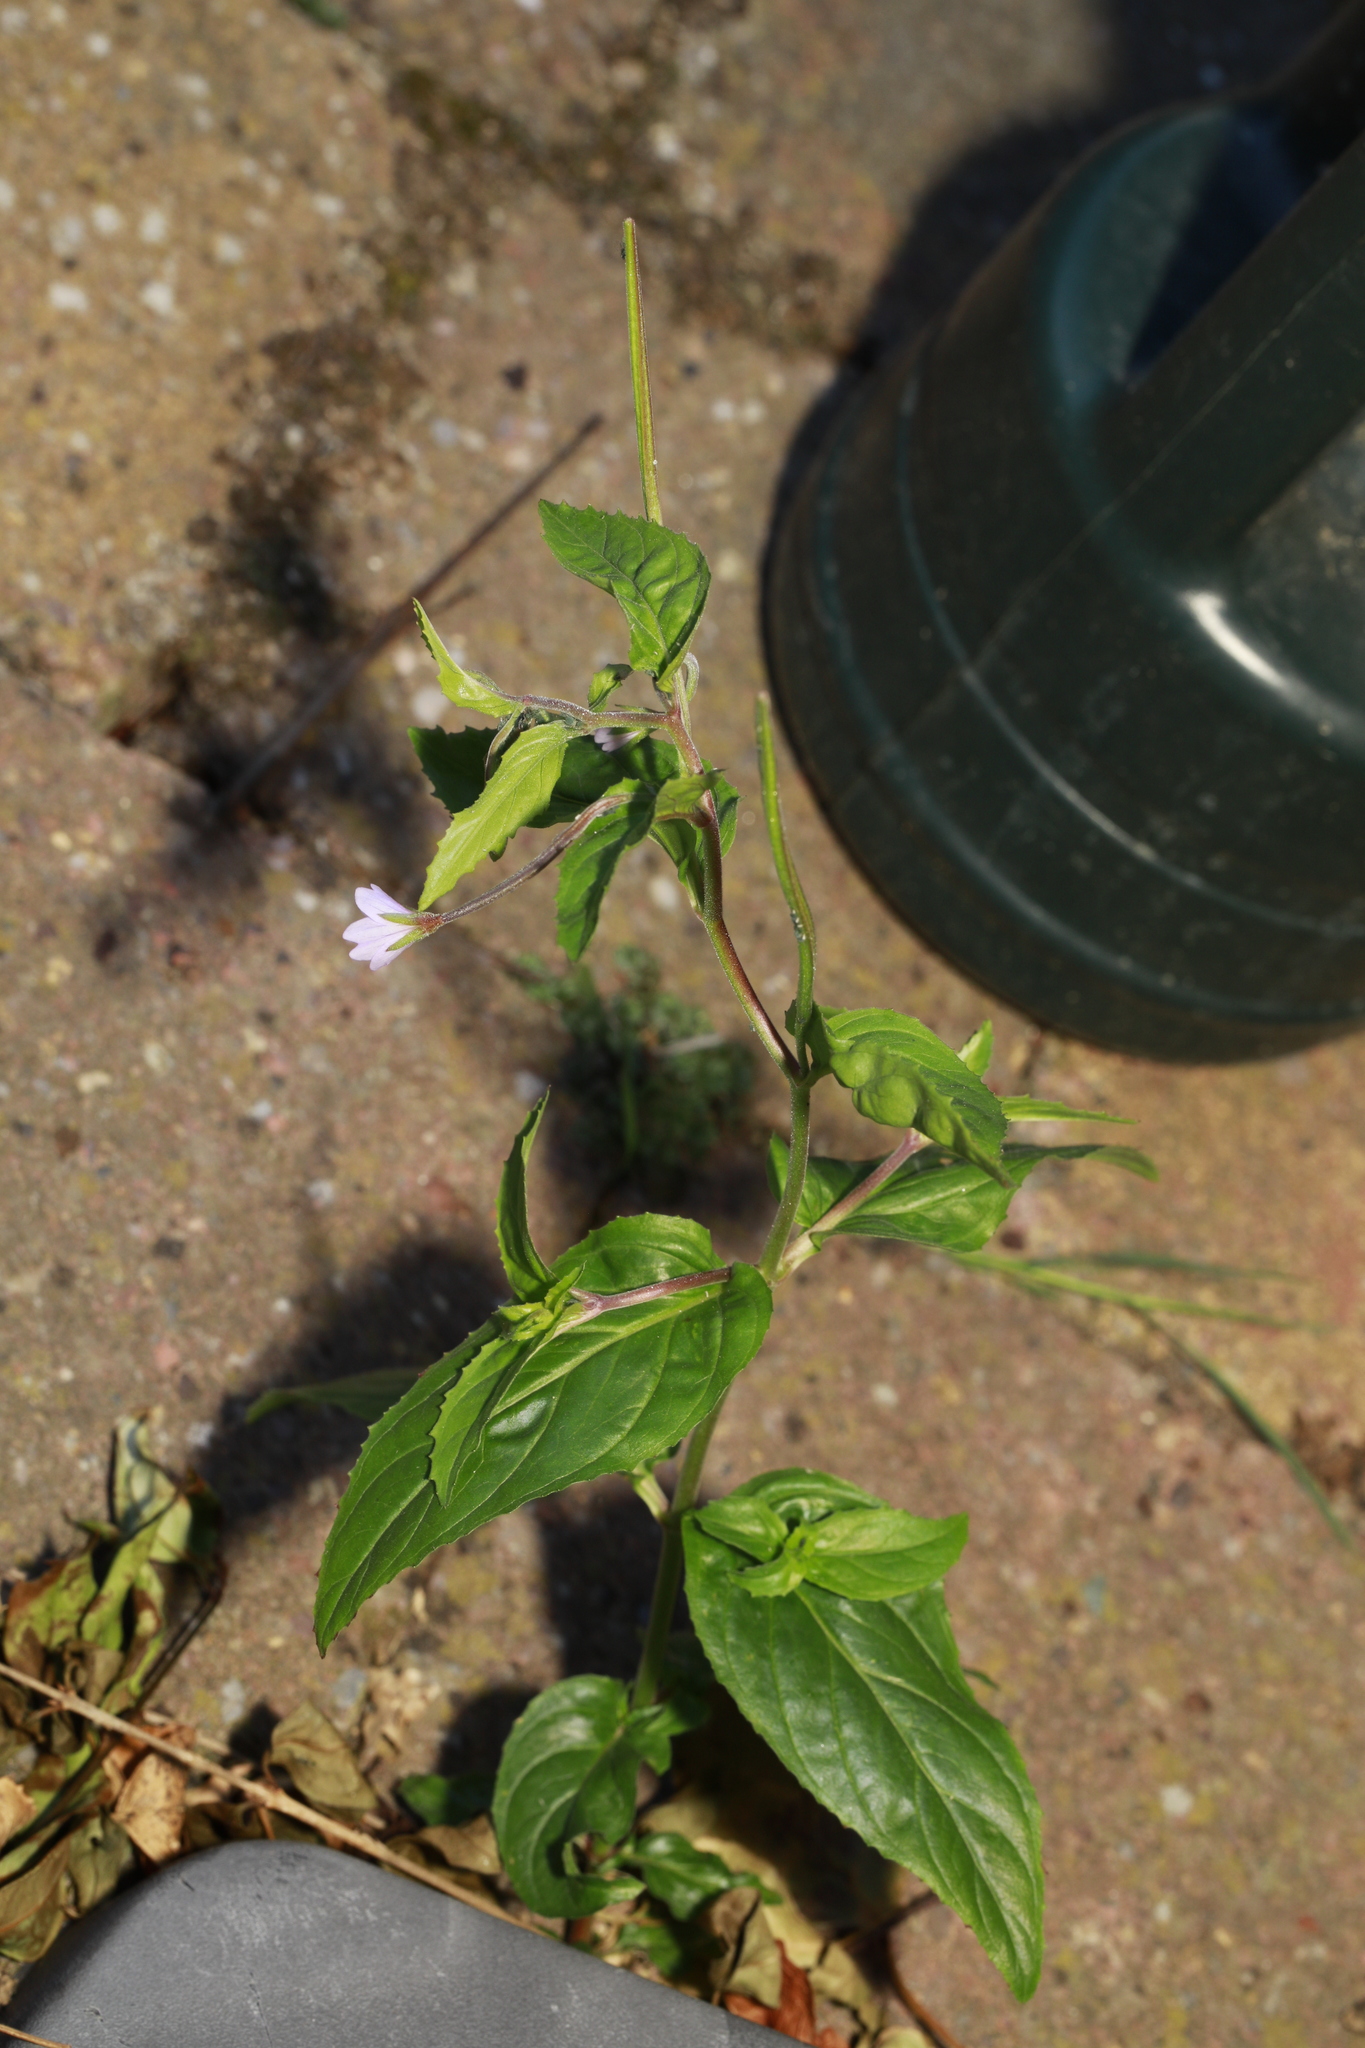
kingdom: Plantae
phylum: Tracheophyta
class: Magnoliopsida
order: Myrtales
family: Onagraceae
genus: Epilobium
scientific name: Epilobium montanum
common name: Broad-leaved willowherb
